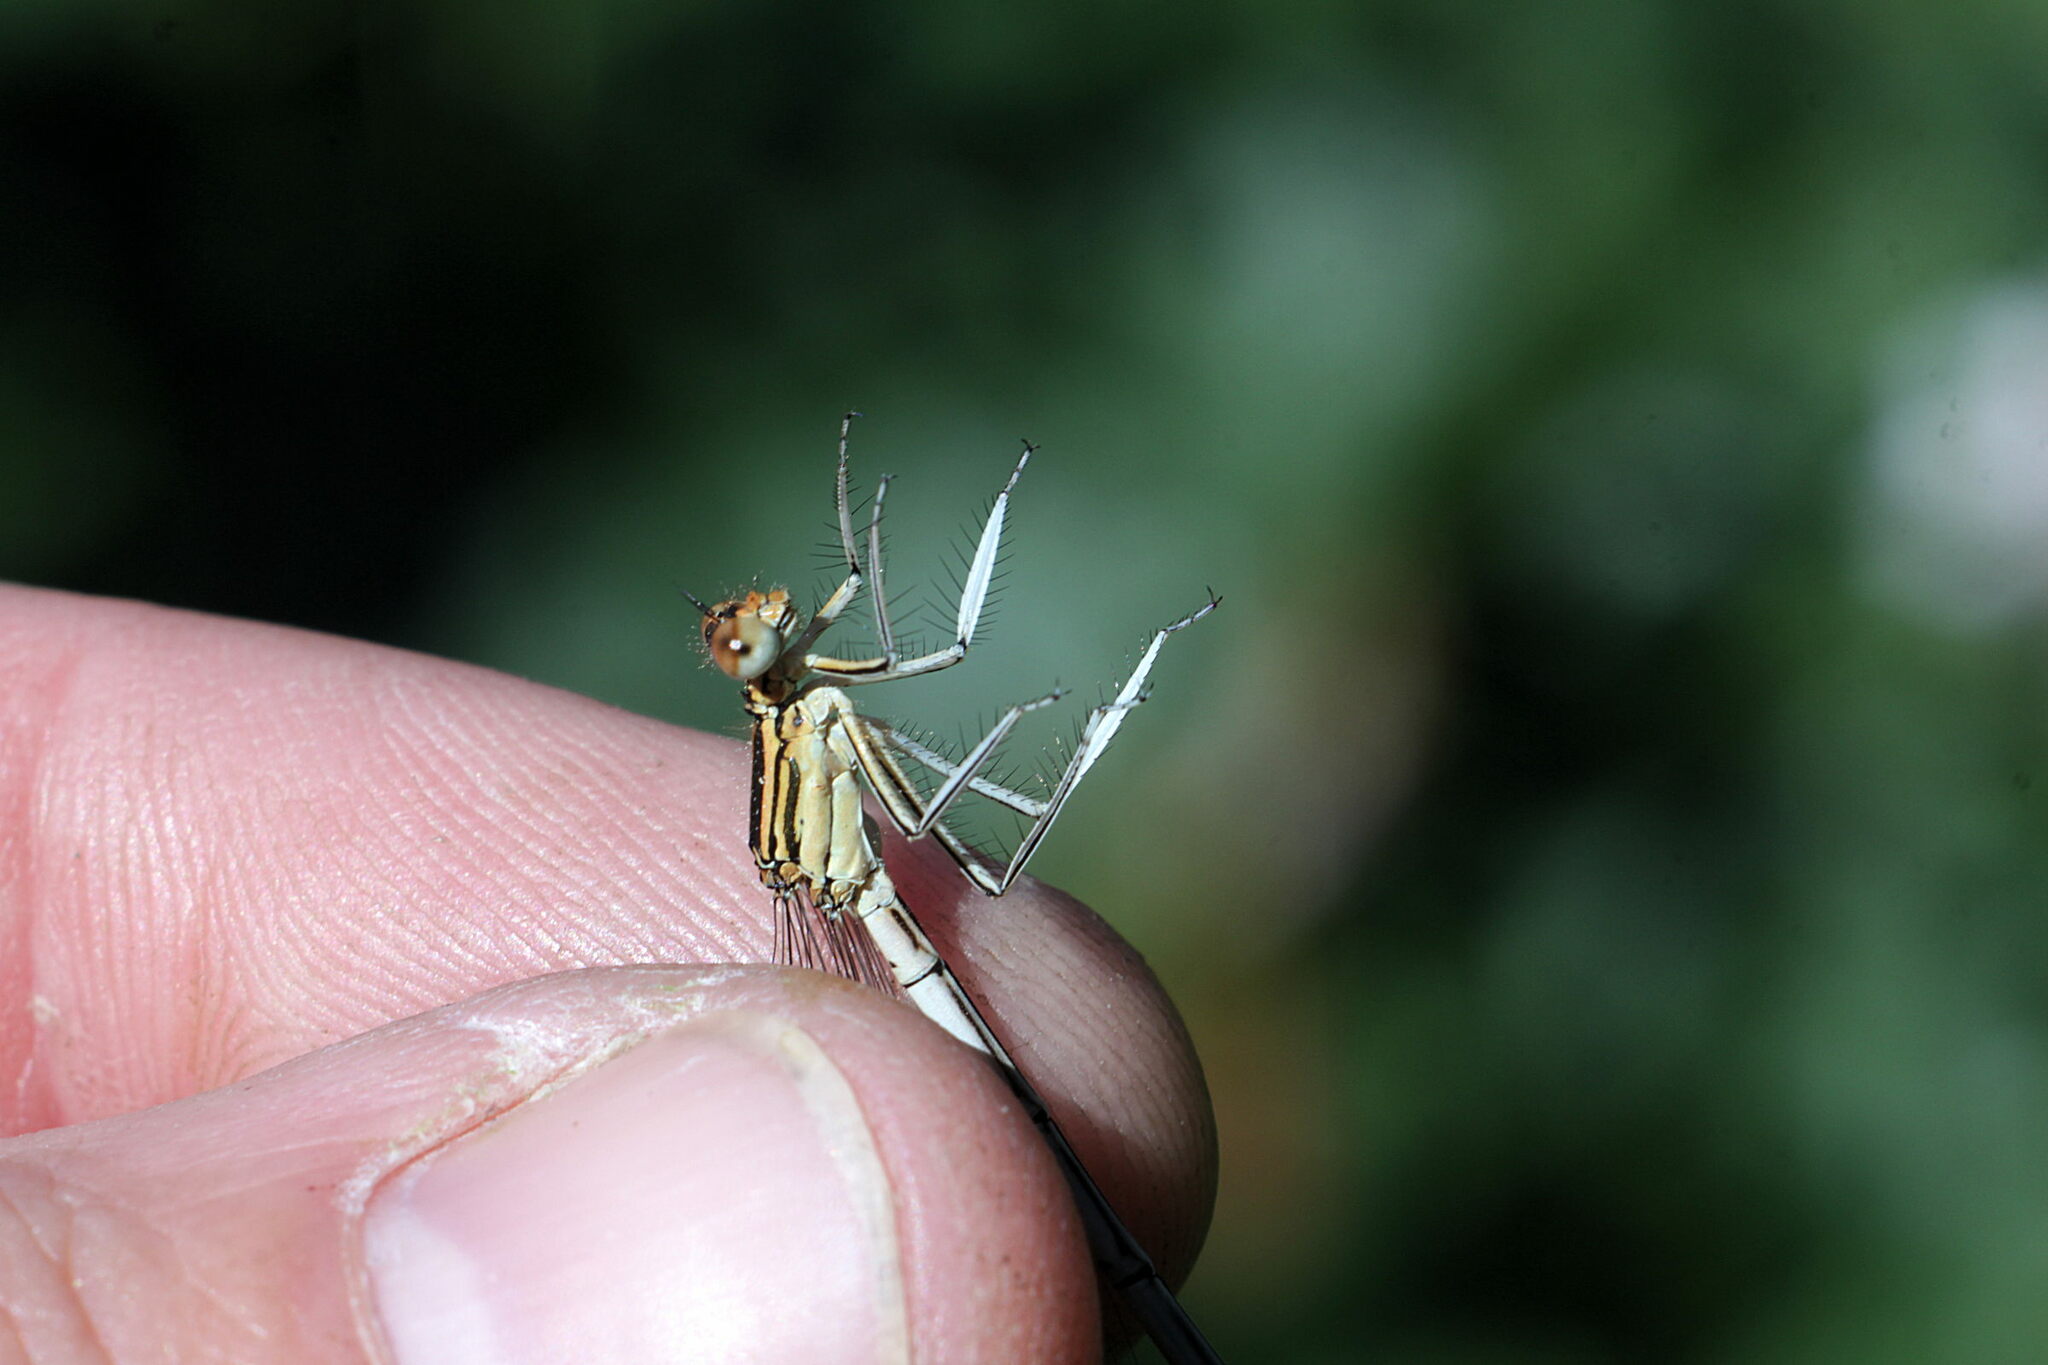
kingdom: Animalia
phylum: Arthropoda
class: Insecta
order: Odonata
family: Platycnemididae
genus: Platycnemis
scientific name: Platycnemis pennipes
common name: White-legged damselfly
